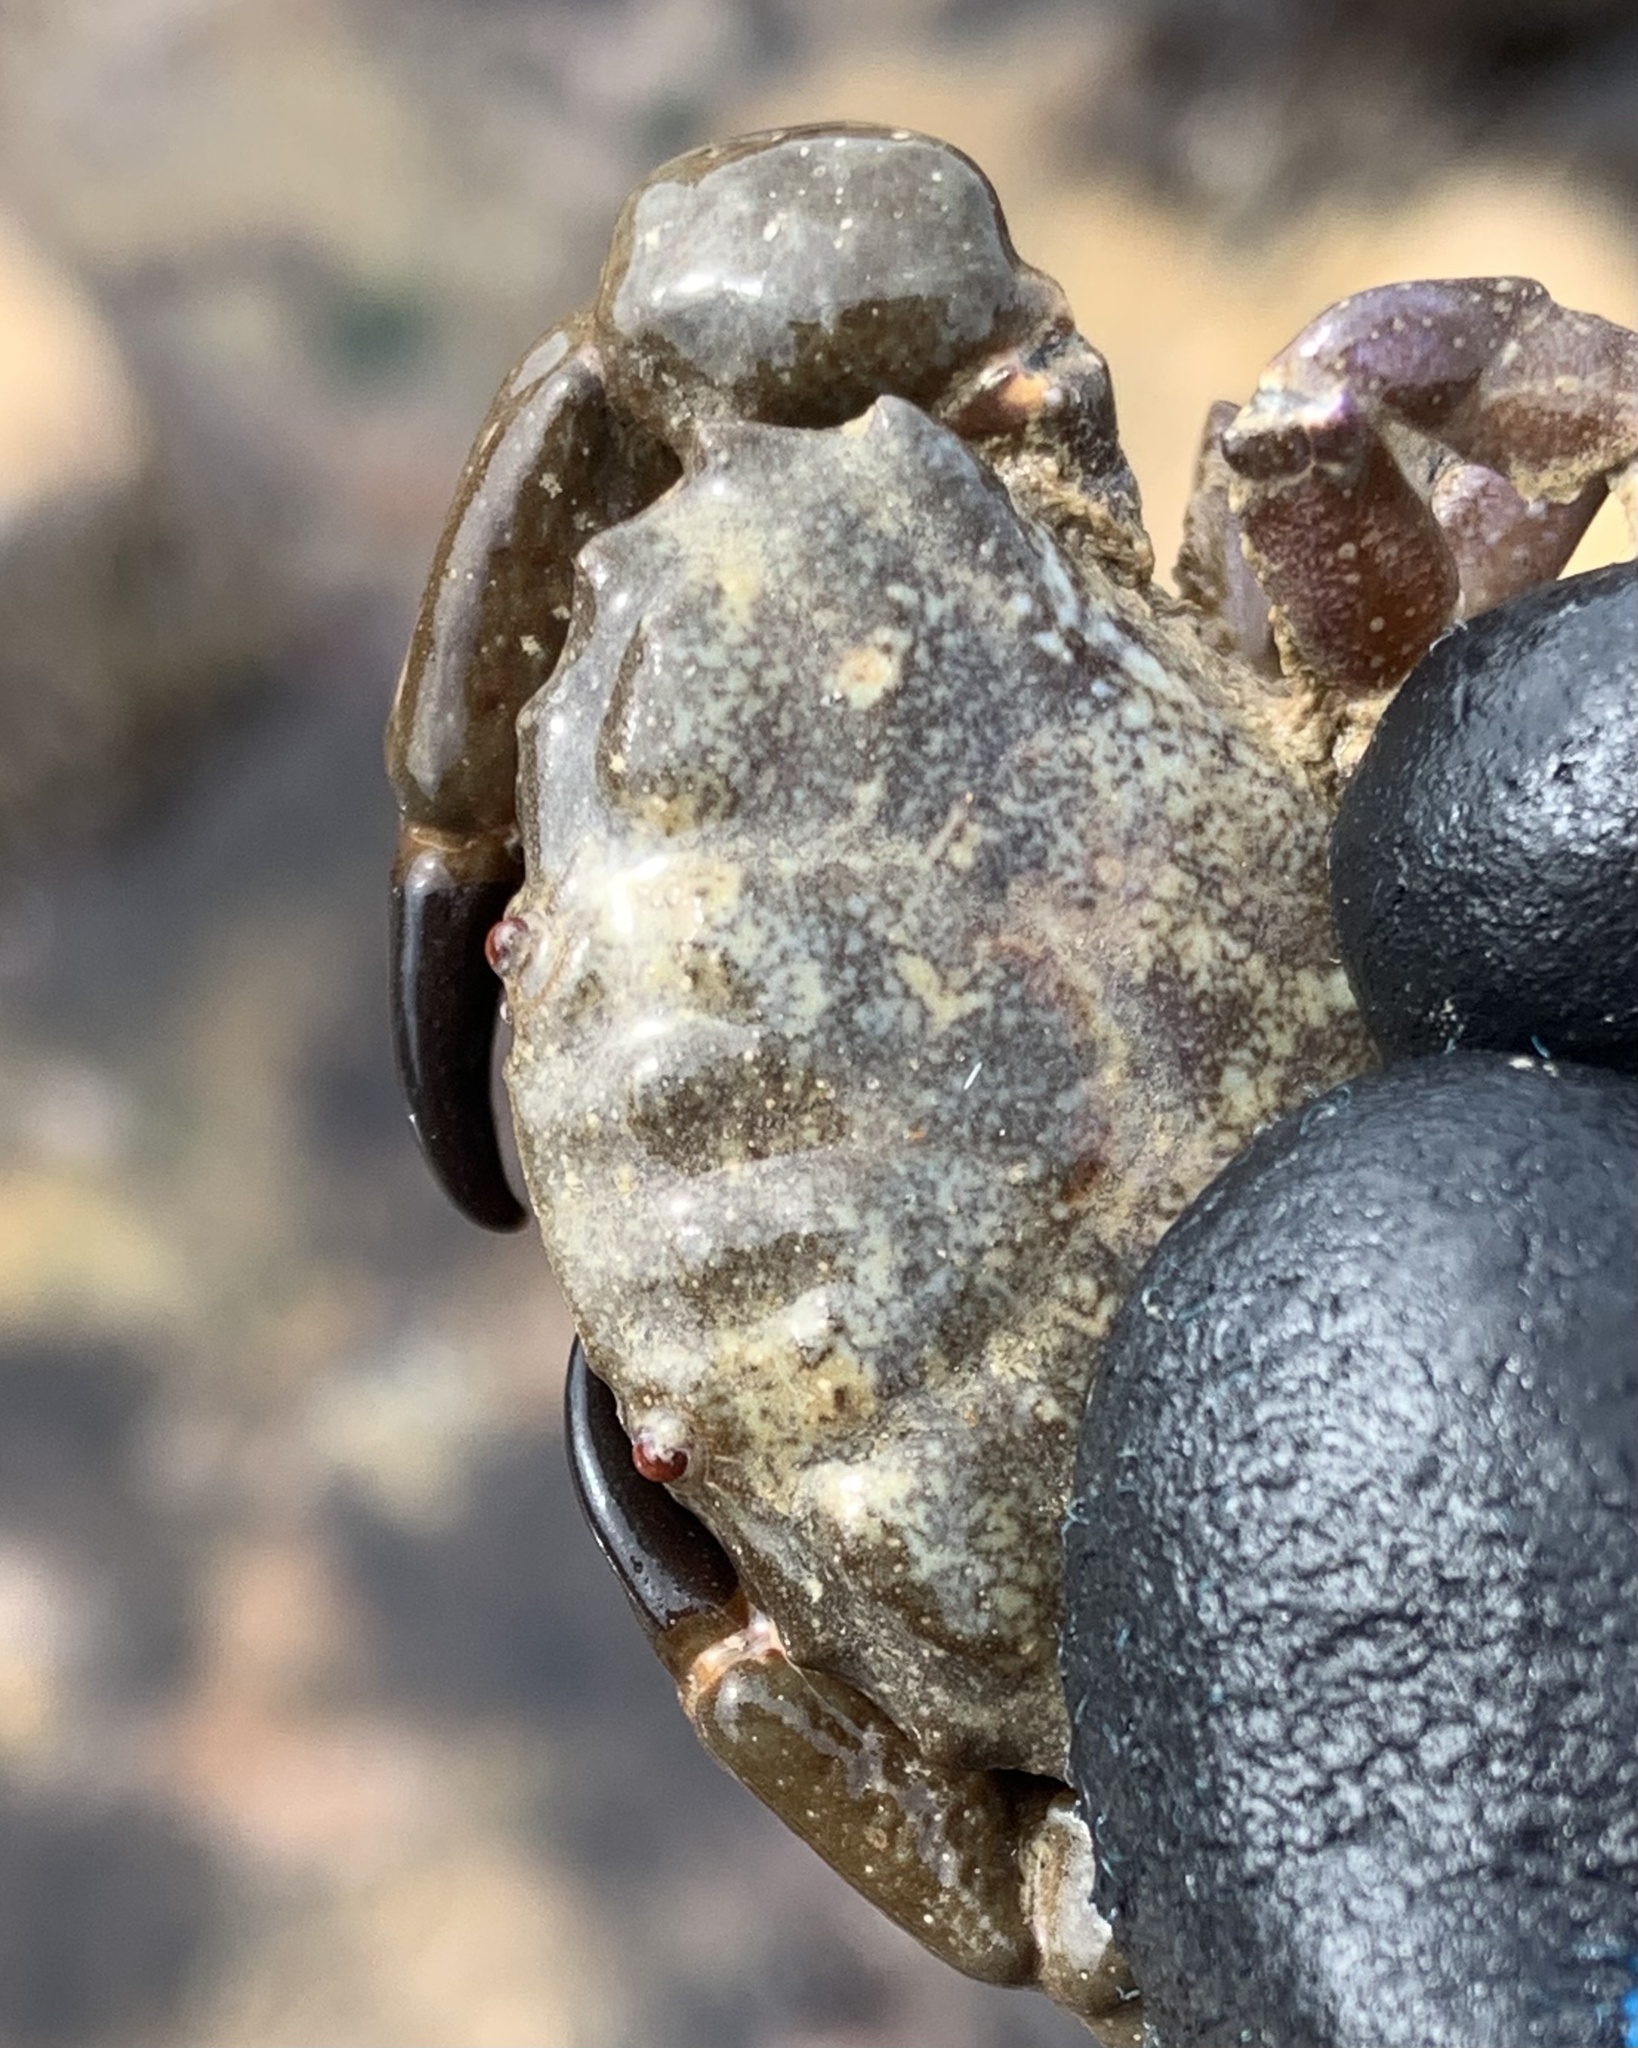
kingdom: Animalia
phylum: Arthropoda
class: Malacostraca
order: Decapoda
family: Xanthidae
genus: Xantho
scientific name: Xantho hydrophilus
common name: Montagu's crab
